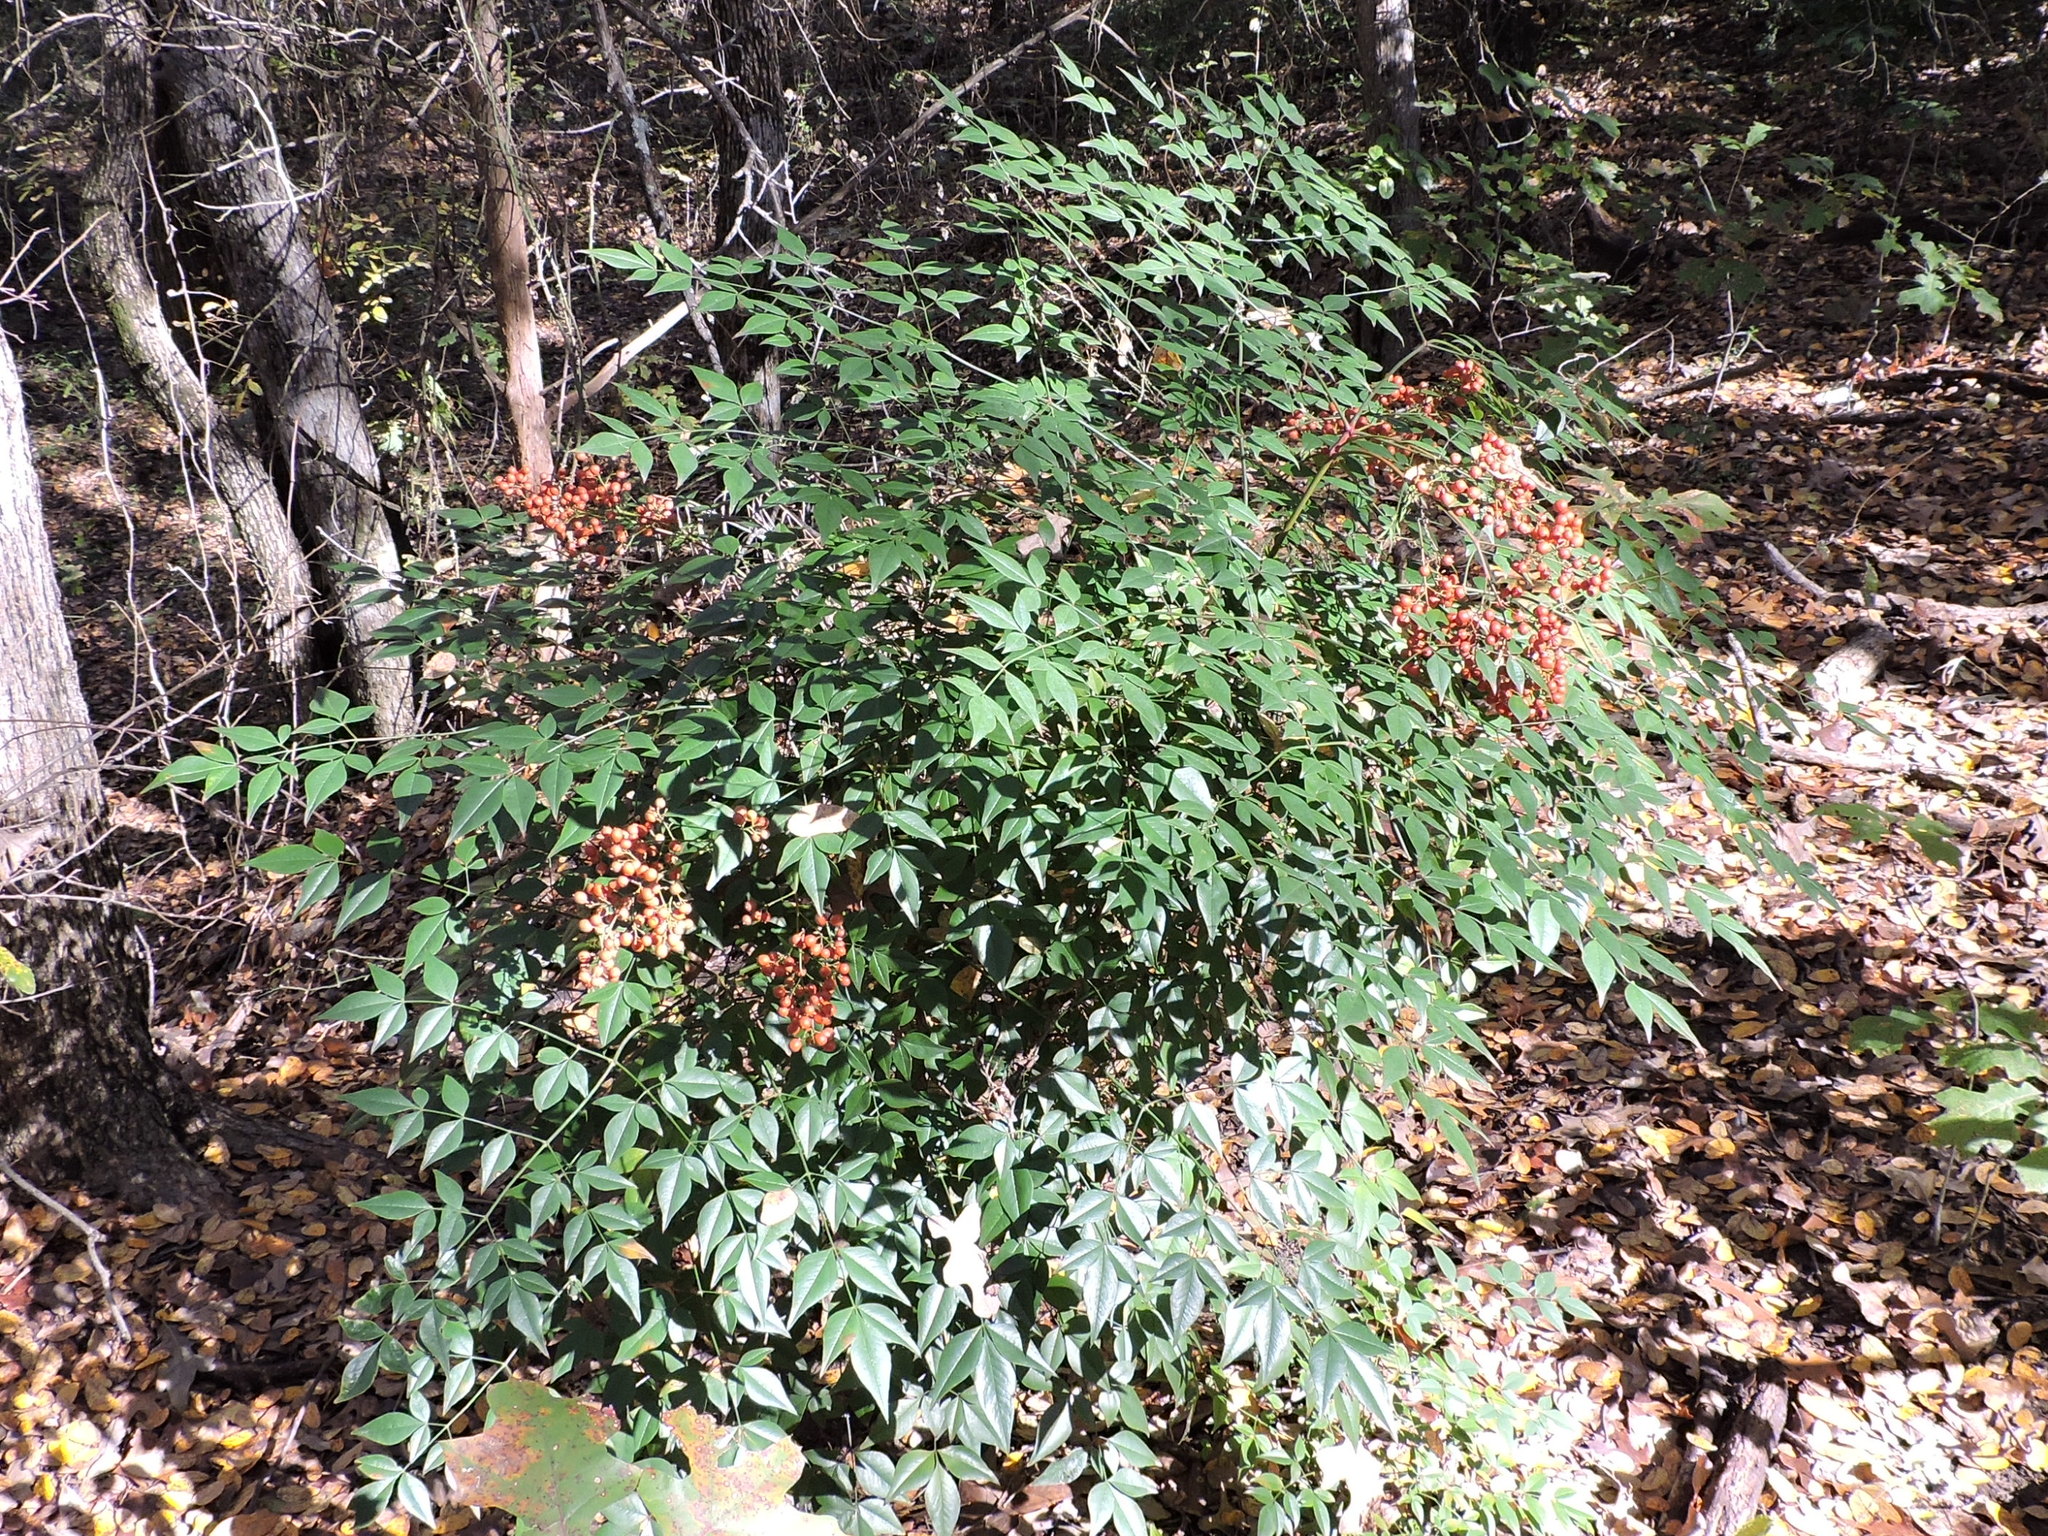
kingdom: Plantae
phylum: Tracheophyta
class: Magnoliopsida
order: Ranunculales
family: Berberidaceae
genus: Nandina
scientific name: Nandina domestica
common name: Sacred bamboo
